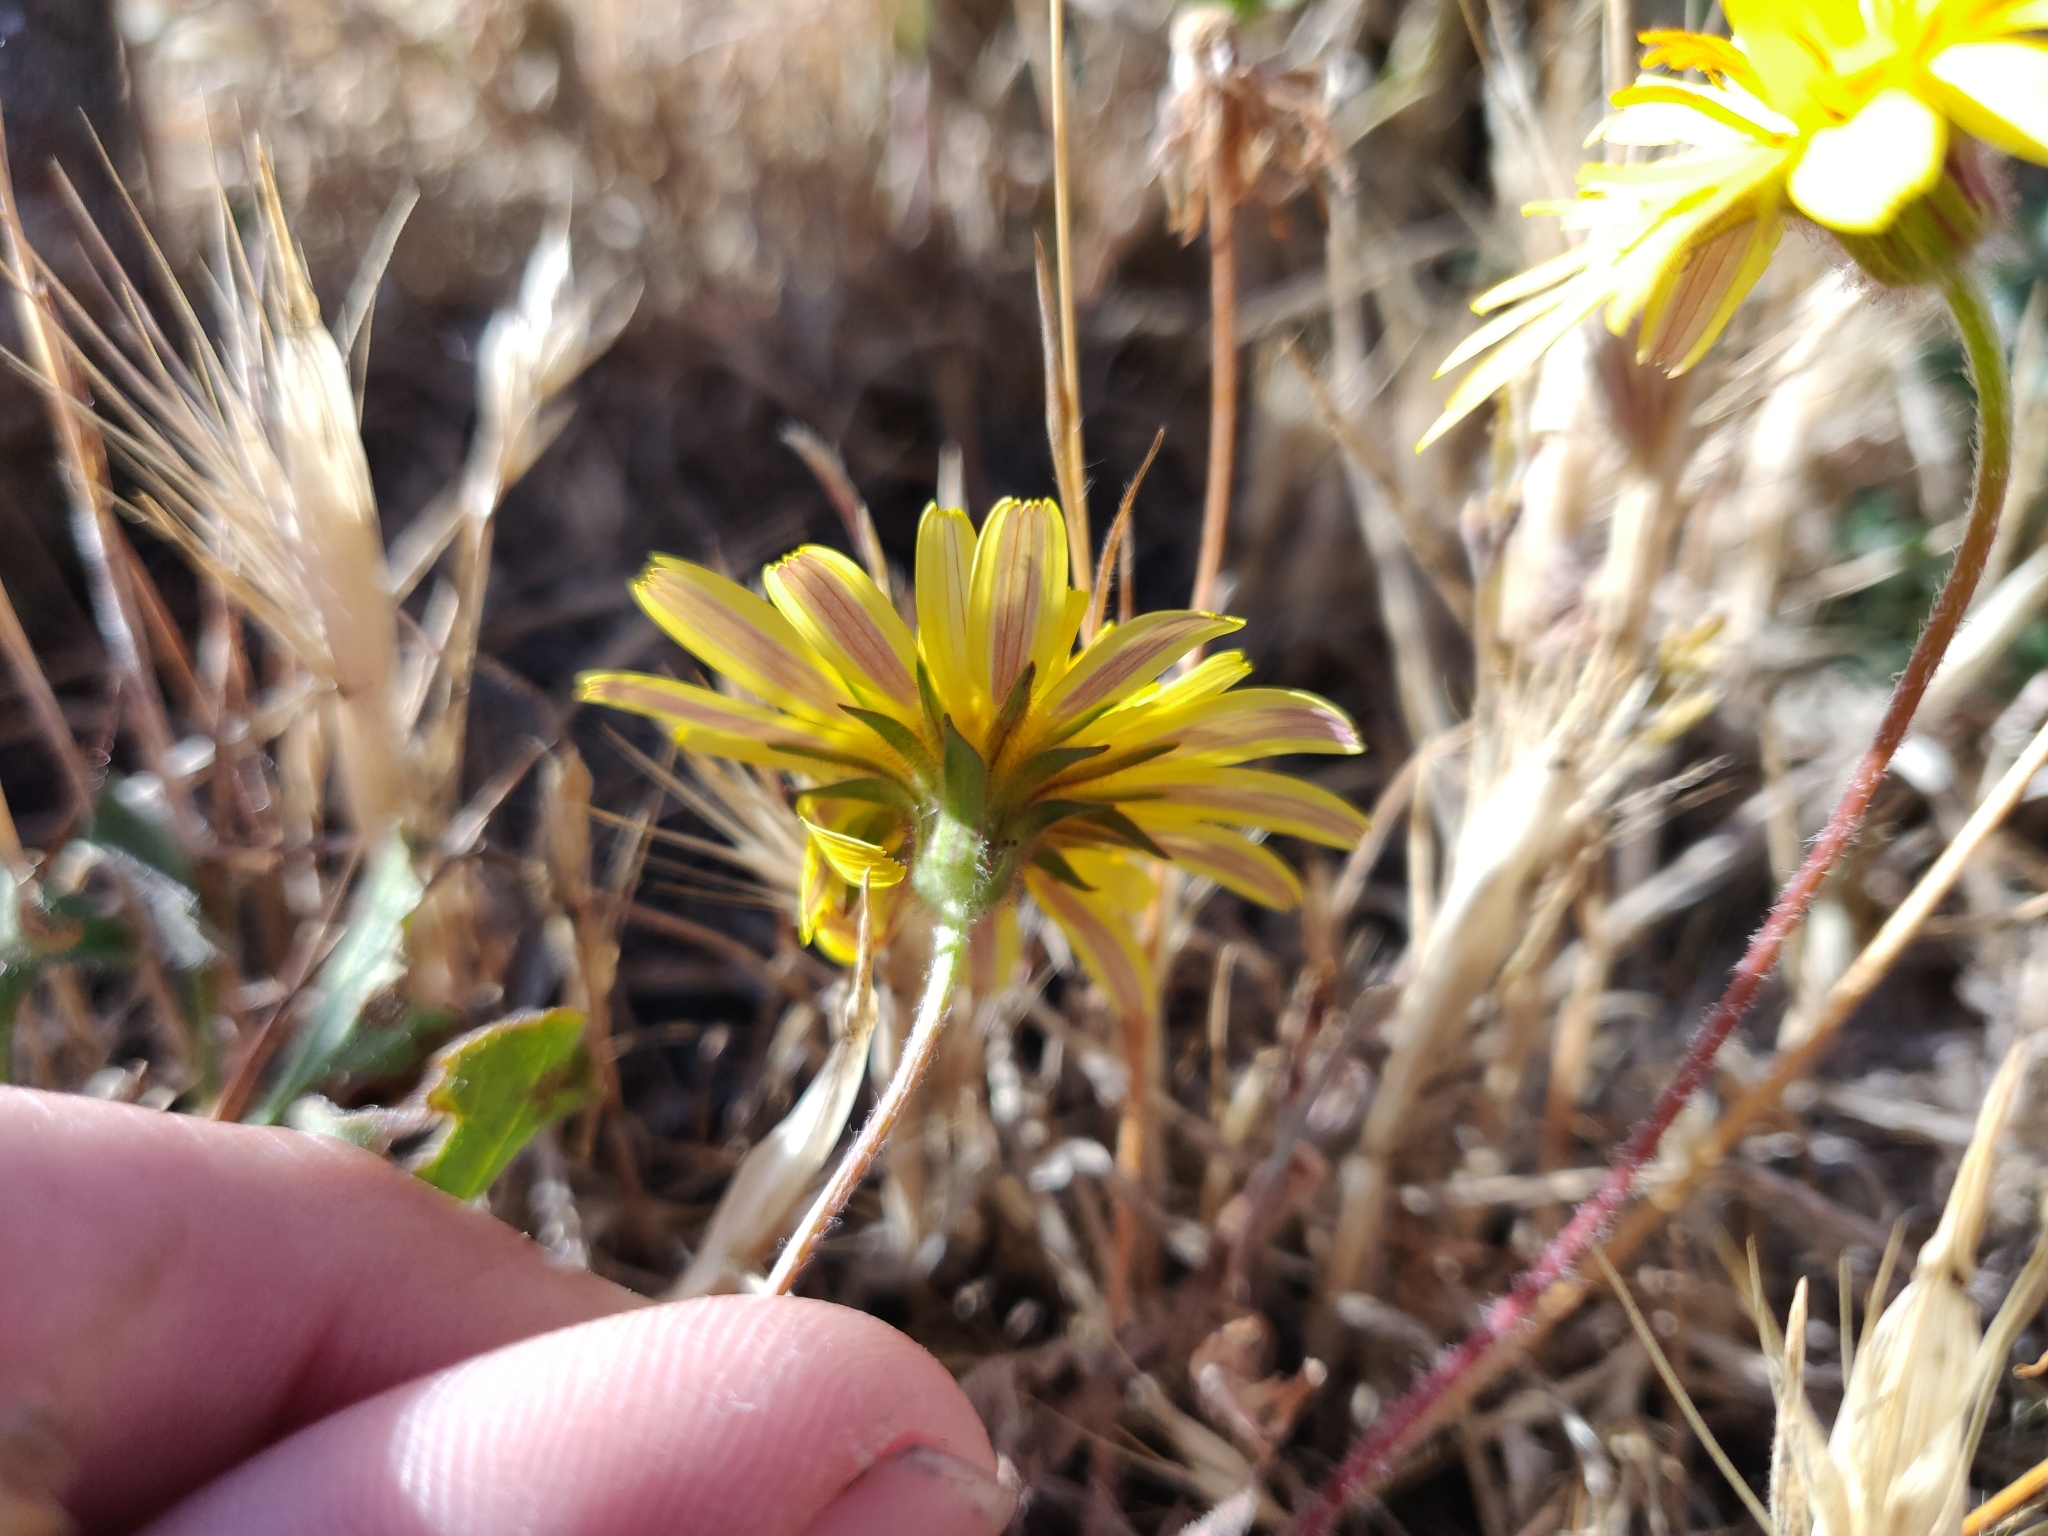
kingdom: Plantae
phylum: Tracheophyta
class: Magnoliopsida
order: Asterales
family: Asteraceae
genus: Agoseris
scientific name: Agoseris heterophylla
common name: Annual agoseris
